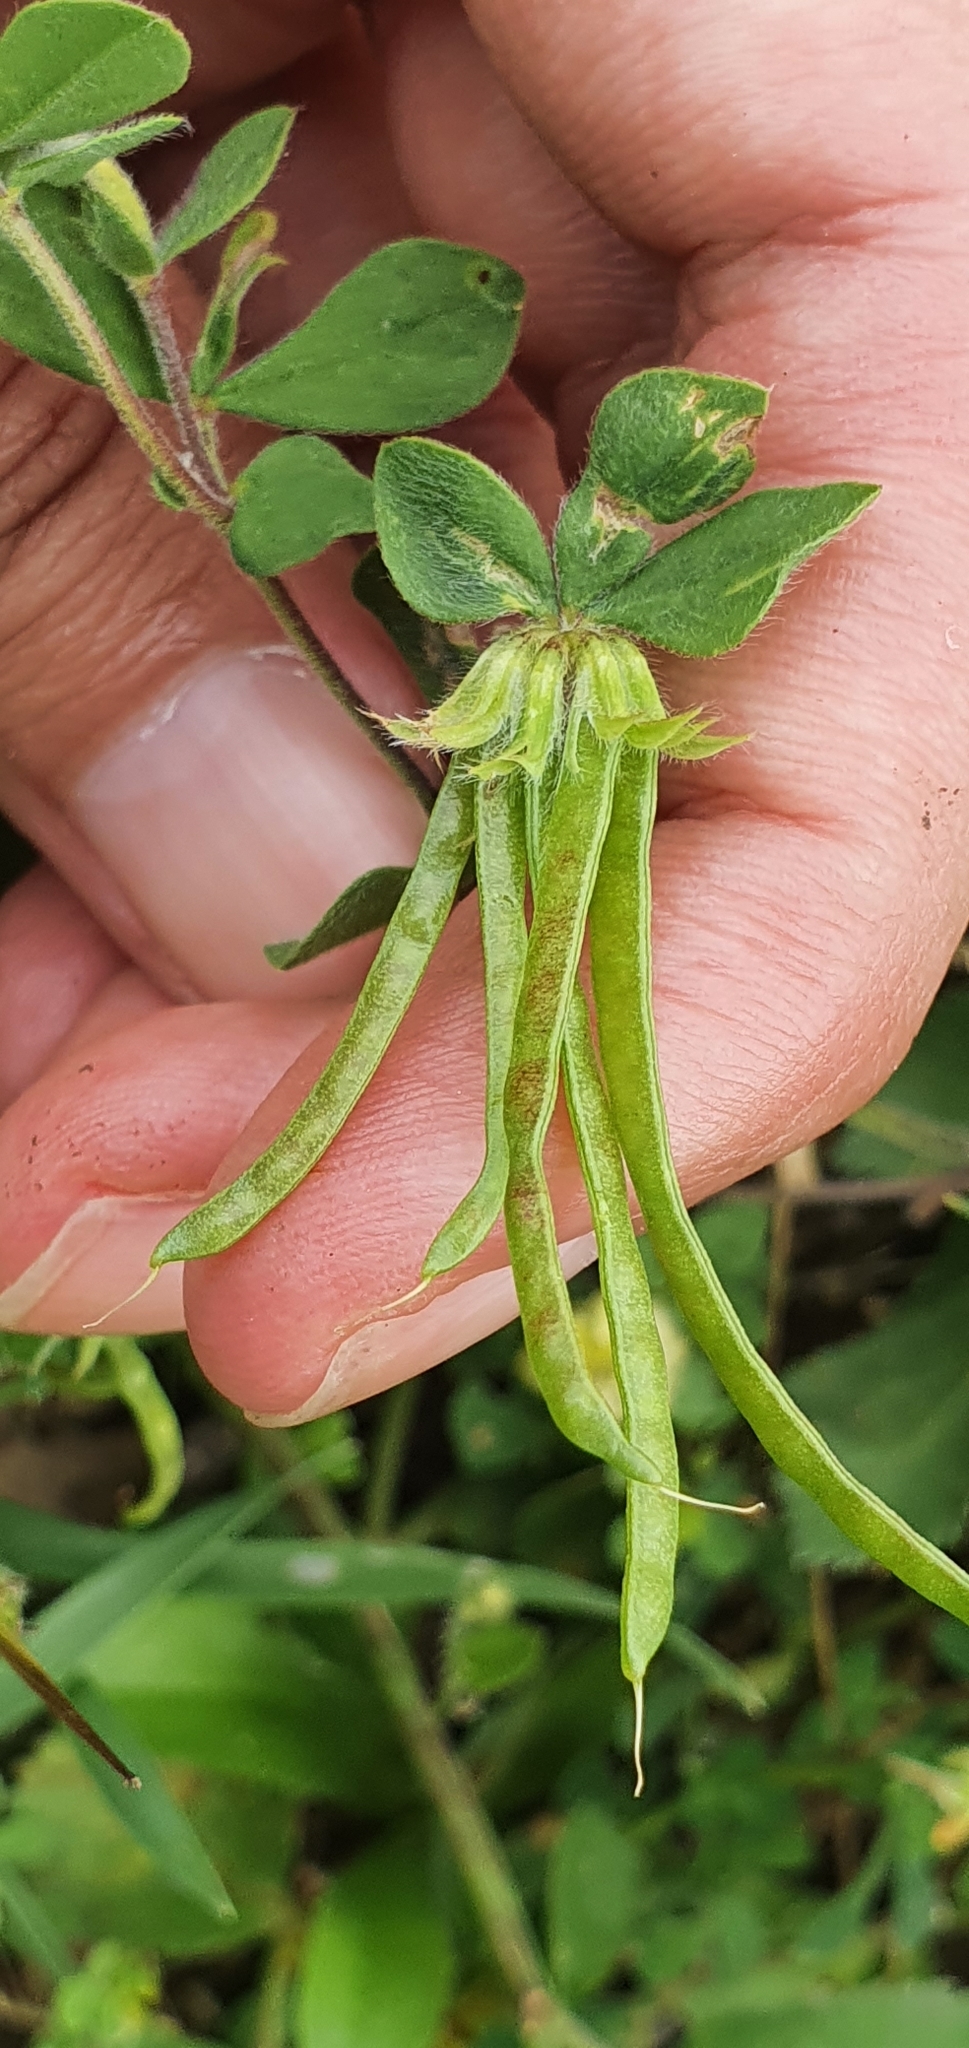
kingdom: Plantae
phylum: Tracheophyta
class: Magnoliopsida
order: Fabales
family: Fabaceae
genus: Lotus
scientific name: Lotus ornithopodioides
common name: Southern bird's-foot trefoil
